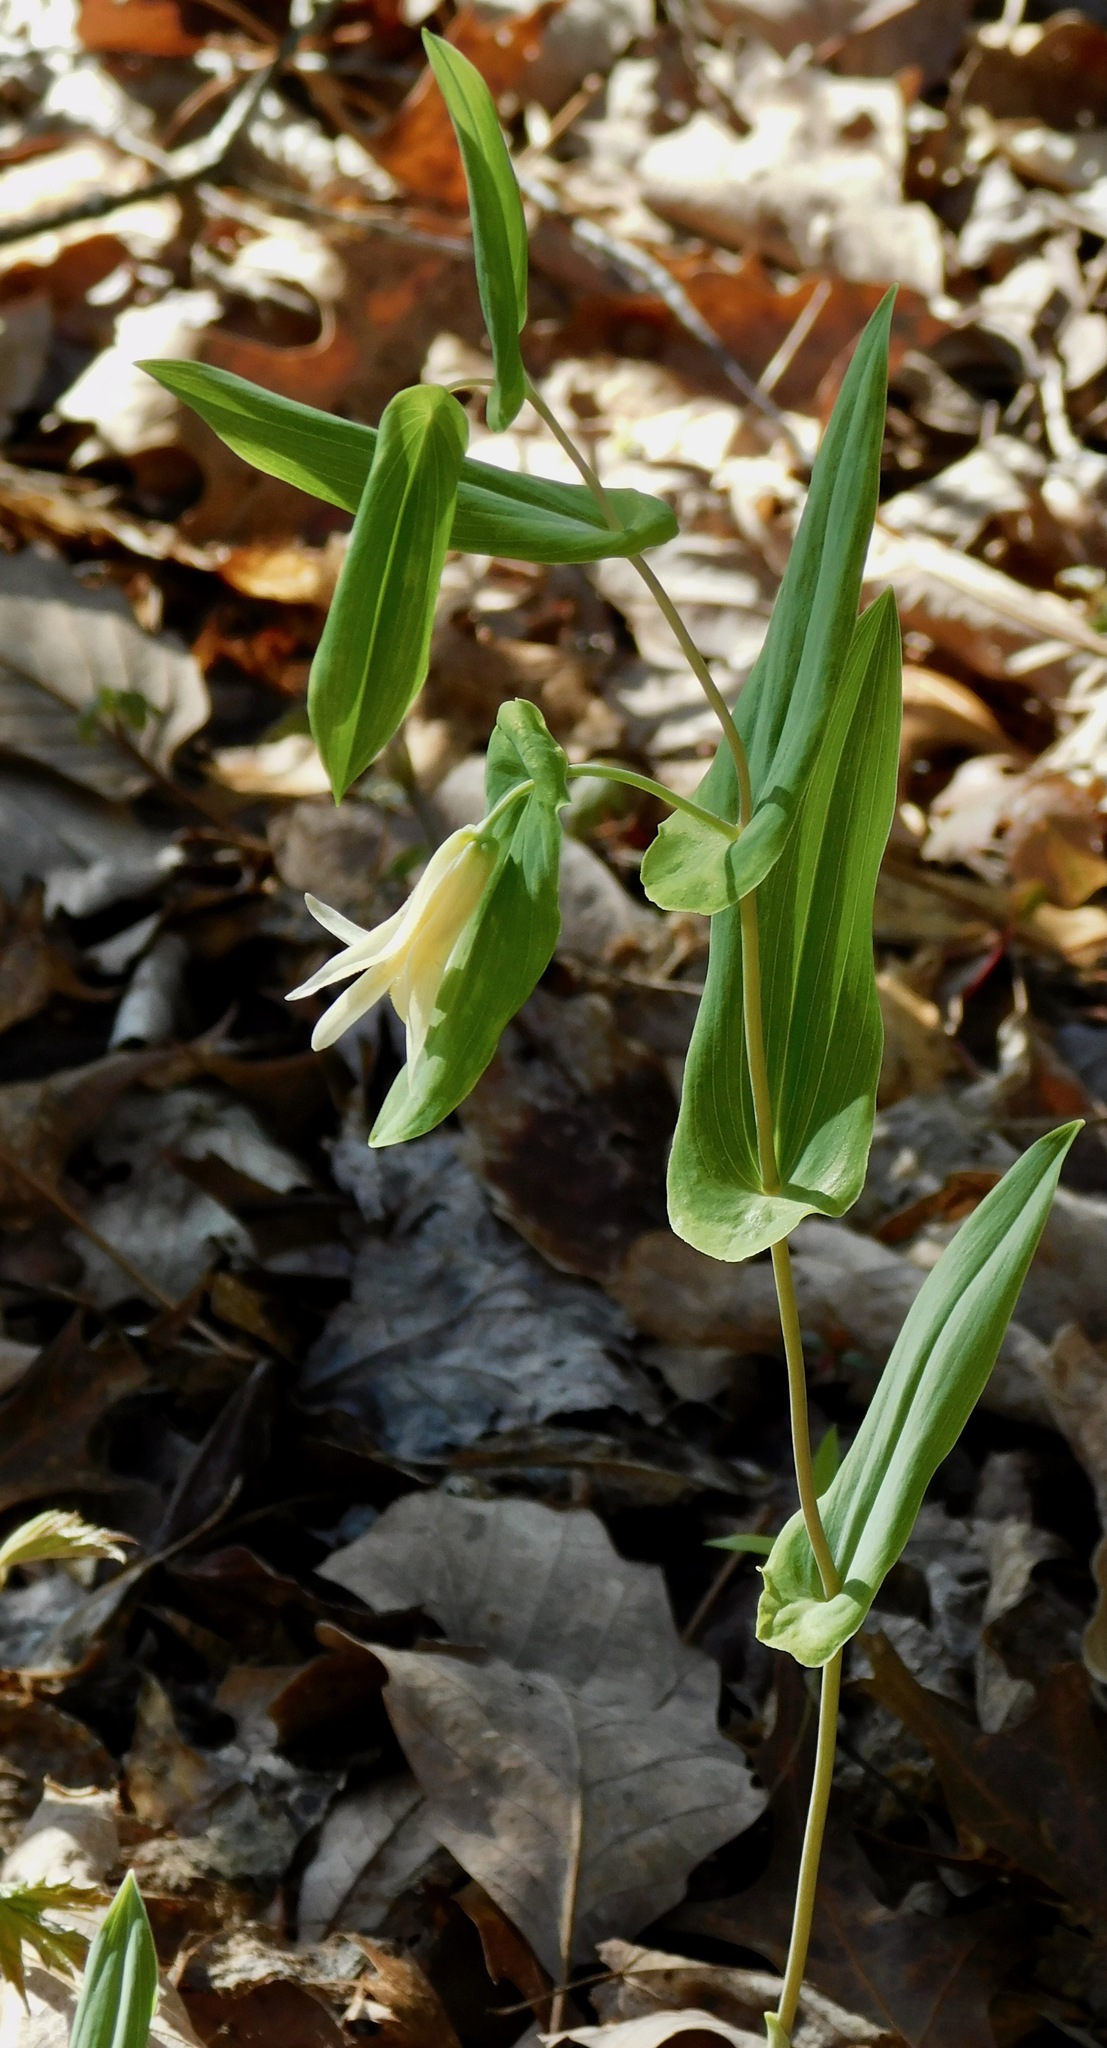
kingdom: Plantae
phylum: Tracheophyta
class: Liliopsida
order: Liliales
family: Colchicaceae
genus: Uvularia
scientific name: Uvularia perfoliata
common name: Perfoliate bellwort
